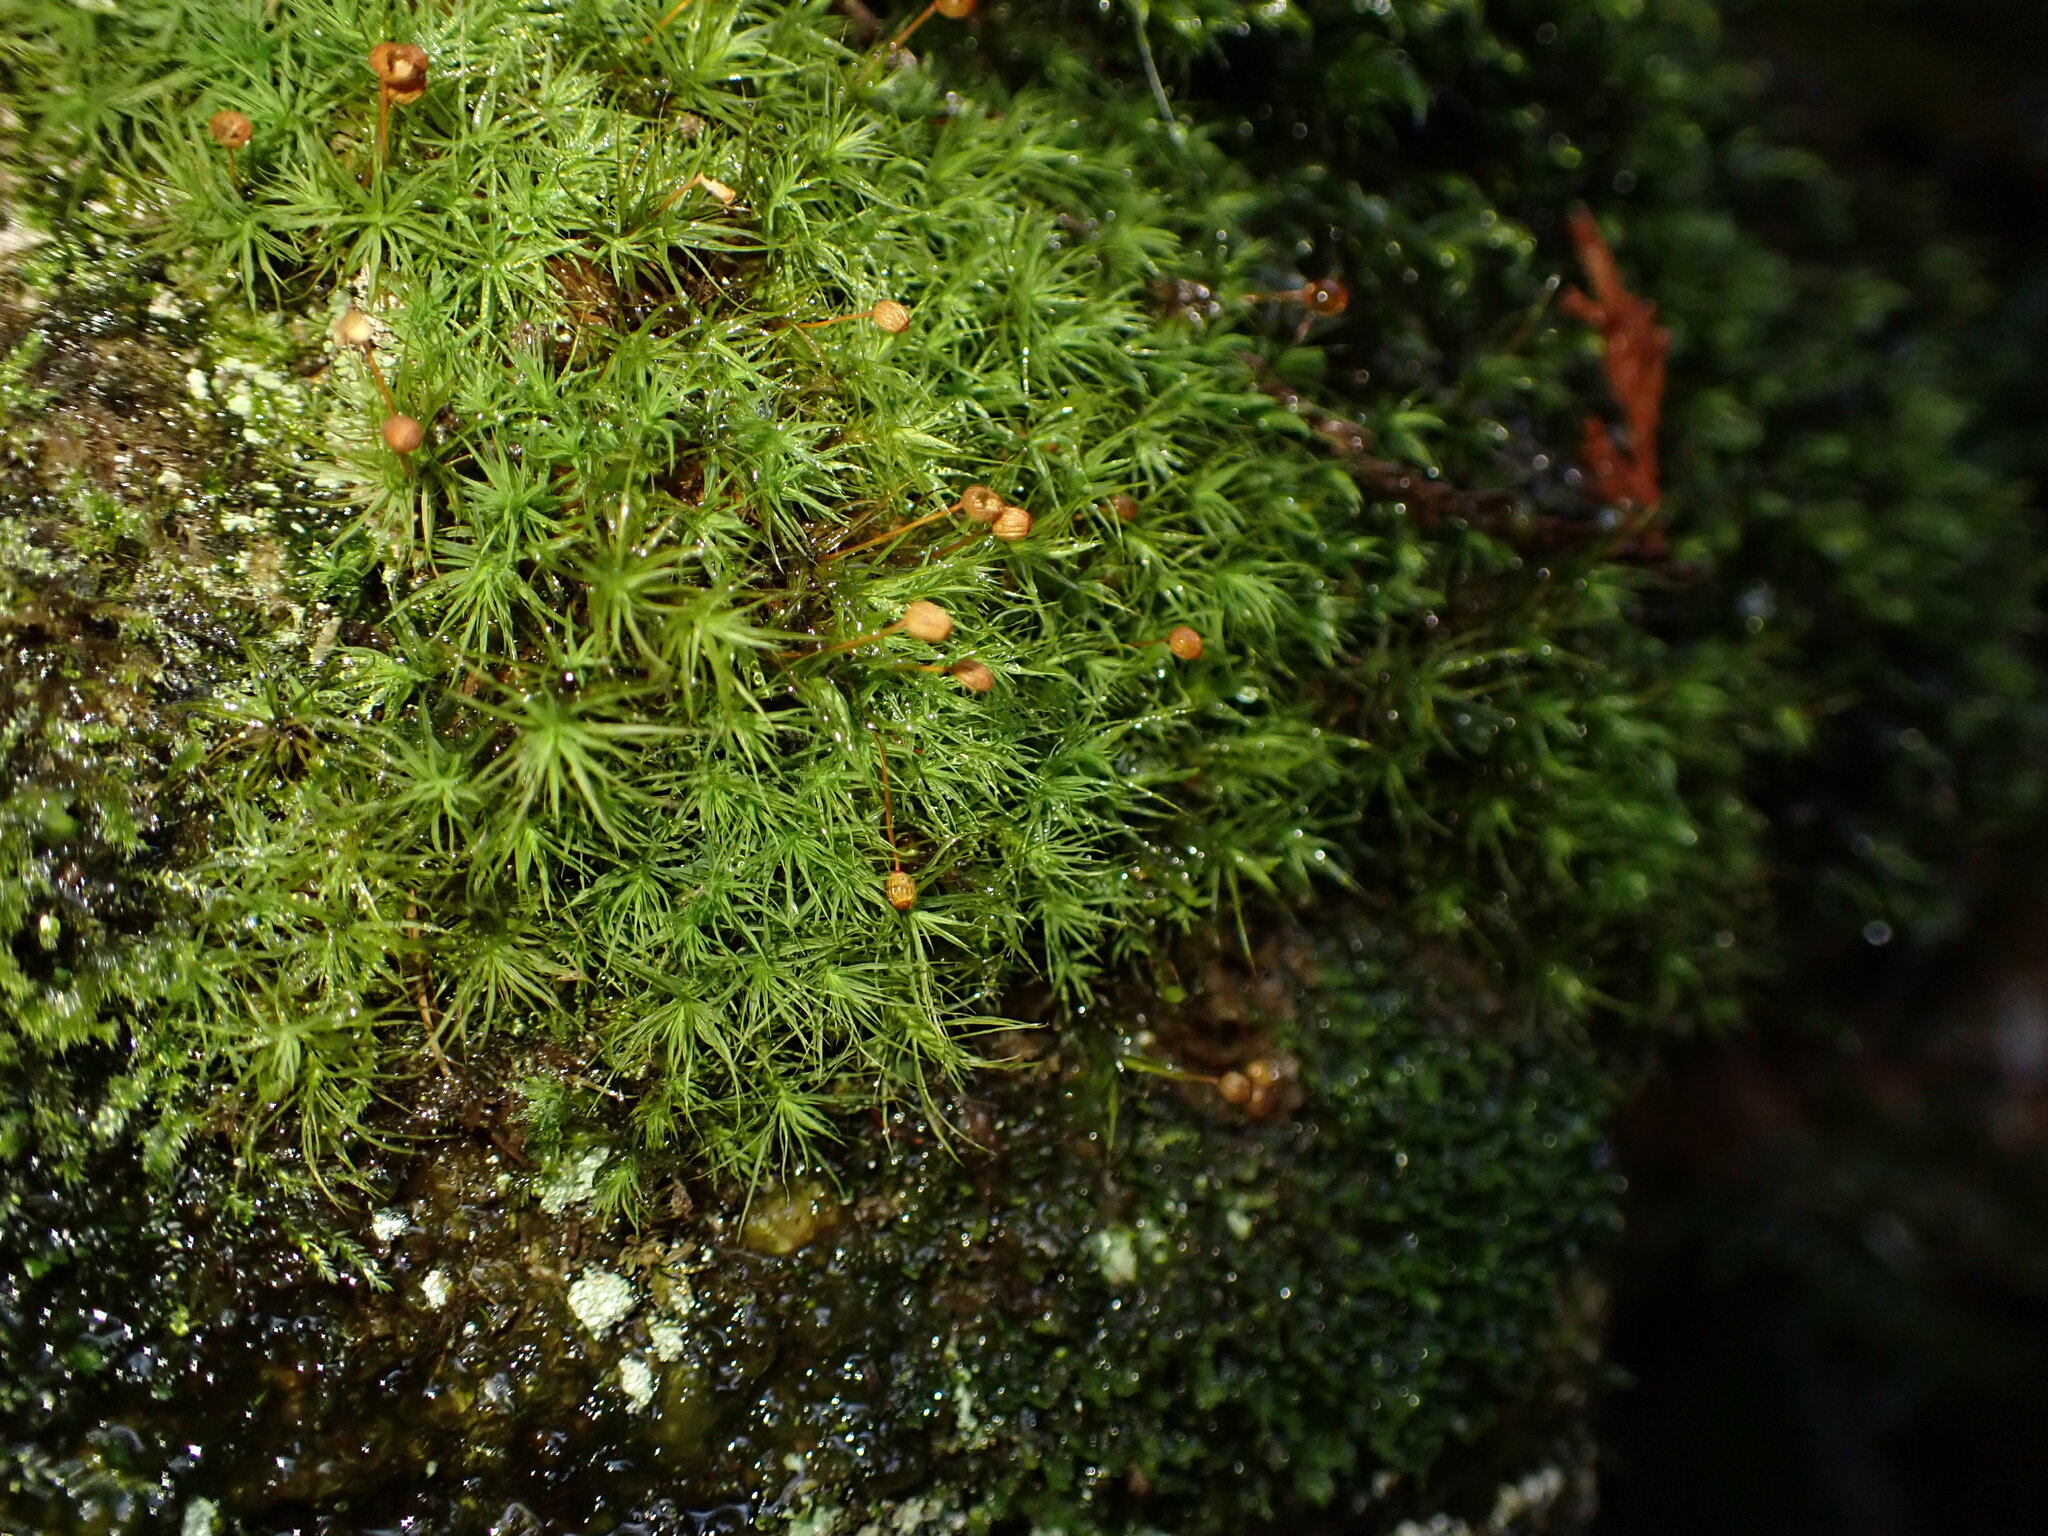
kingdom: Plantae
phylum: Bryophyta
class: Bryopsida
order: Bartramiales
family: Bartramiaceae
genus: Bartramia
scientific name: Bartramia ithyphylla
